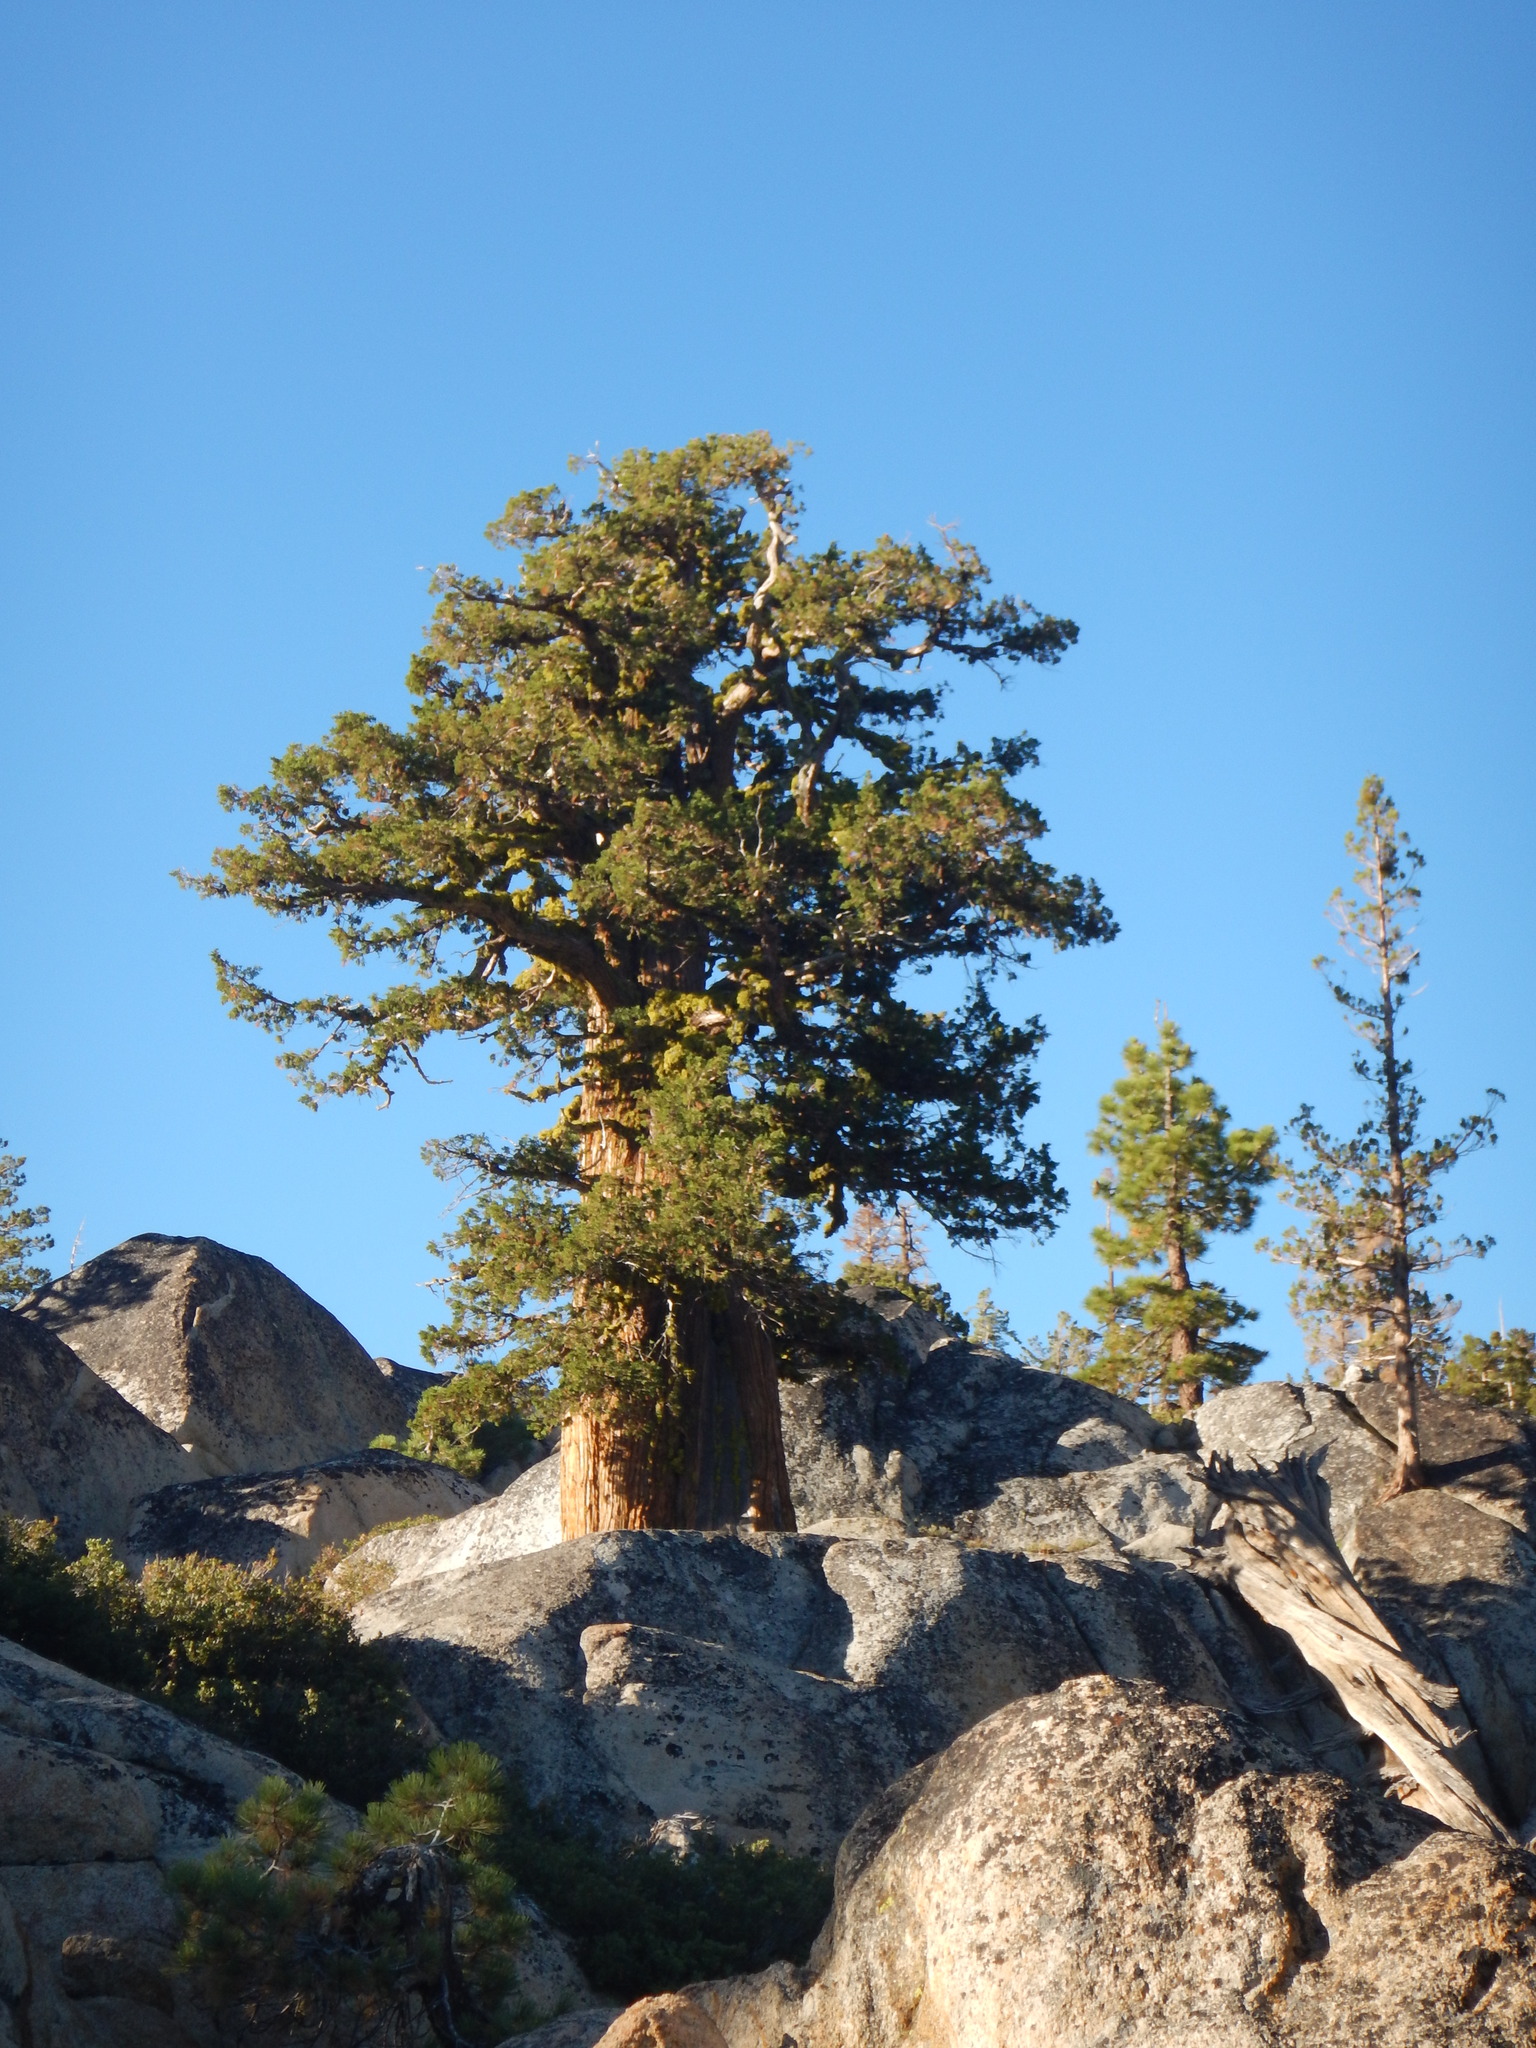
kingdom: Plantae
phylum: Tracheophyta
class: Pinopsida
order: Pinales
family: Cupressaceae
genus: Juniperus
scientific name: Juniperus occidentalis
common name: Western juniper
